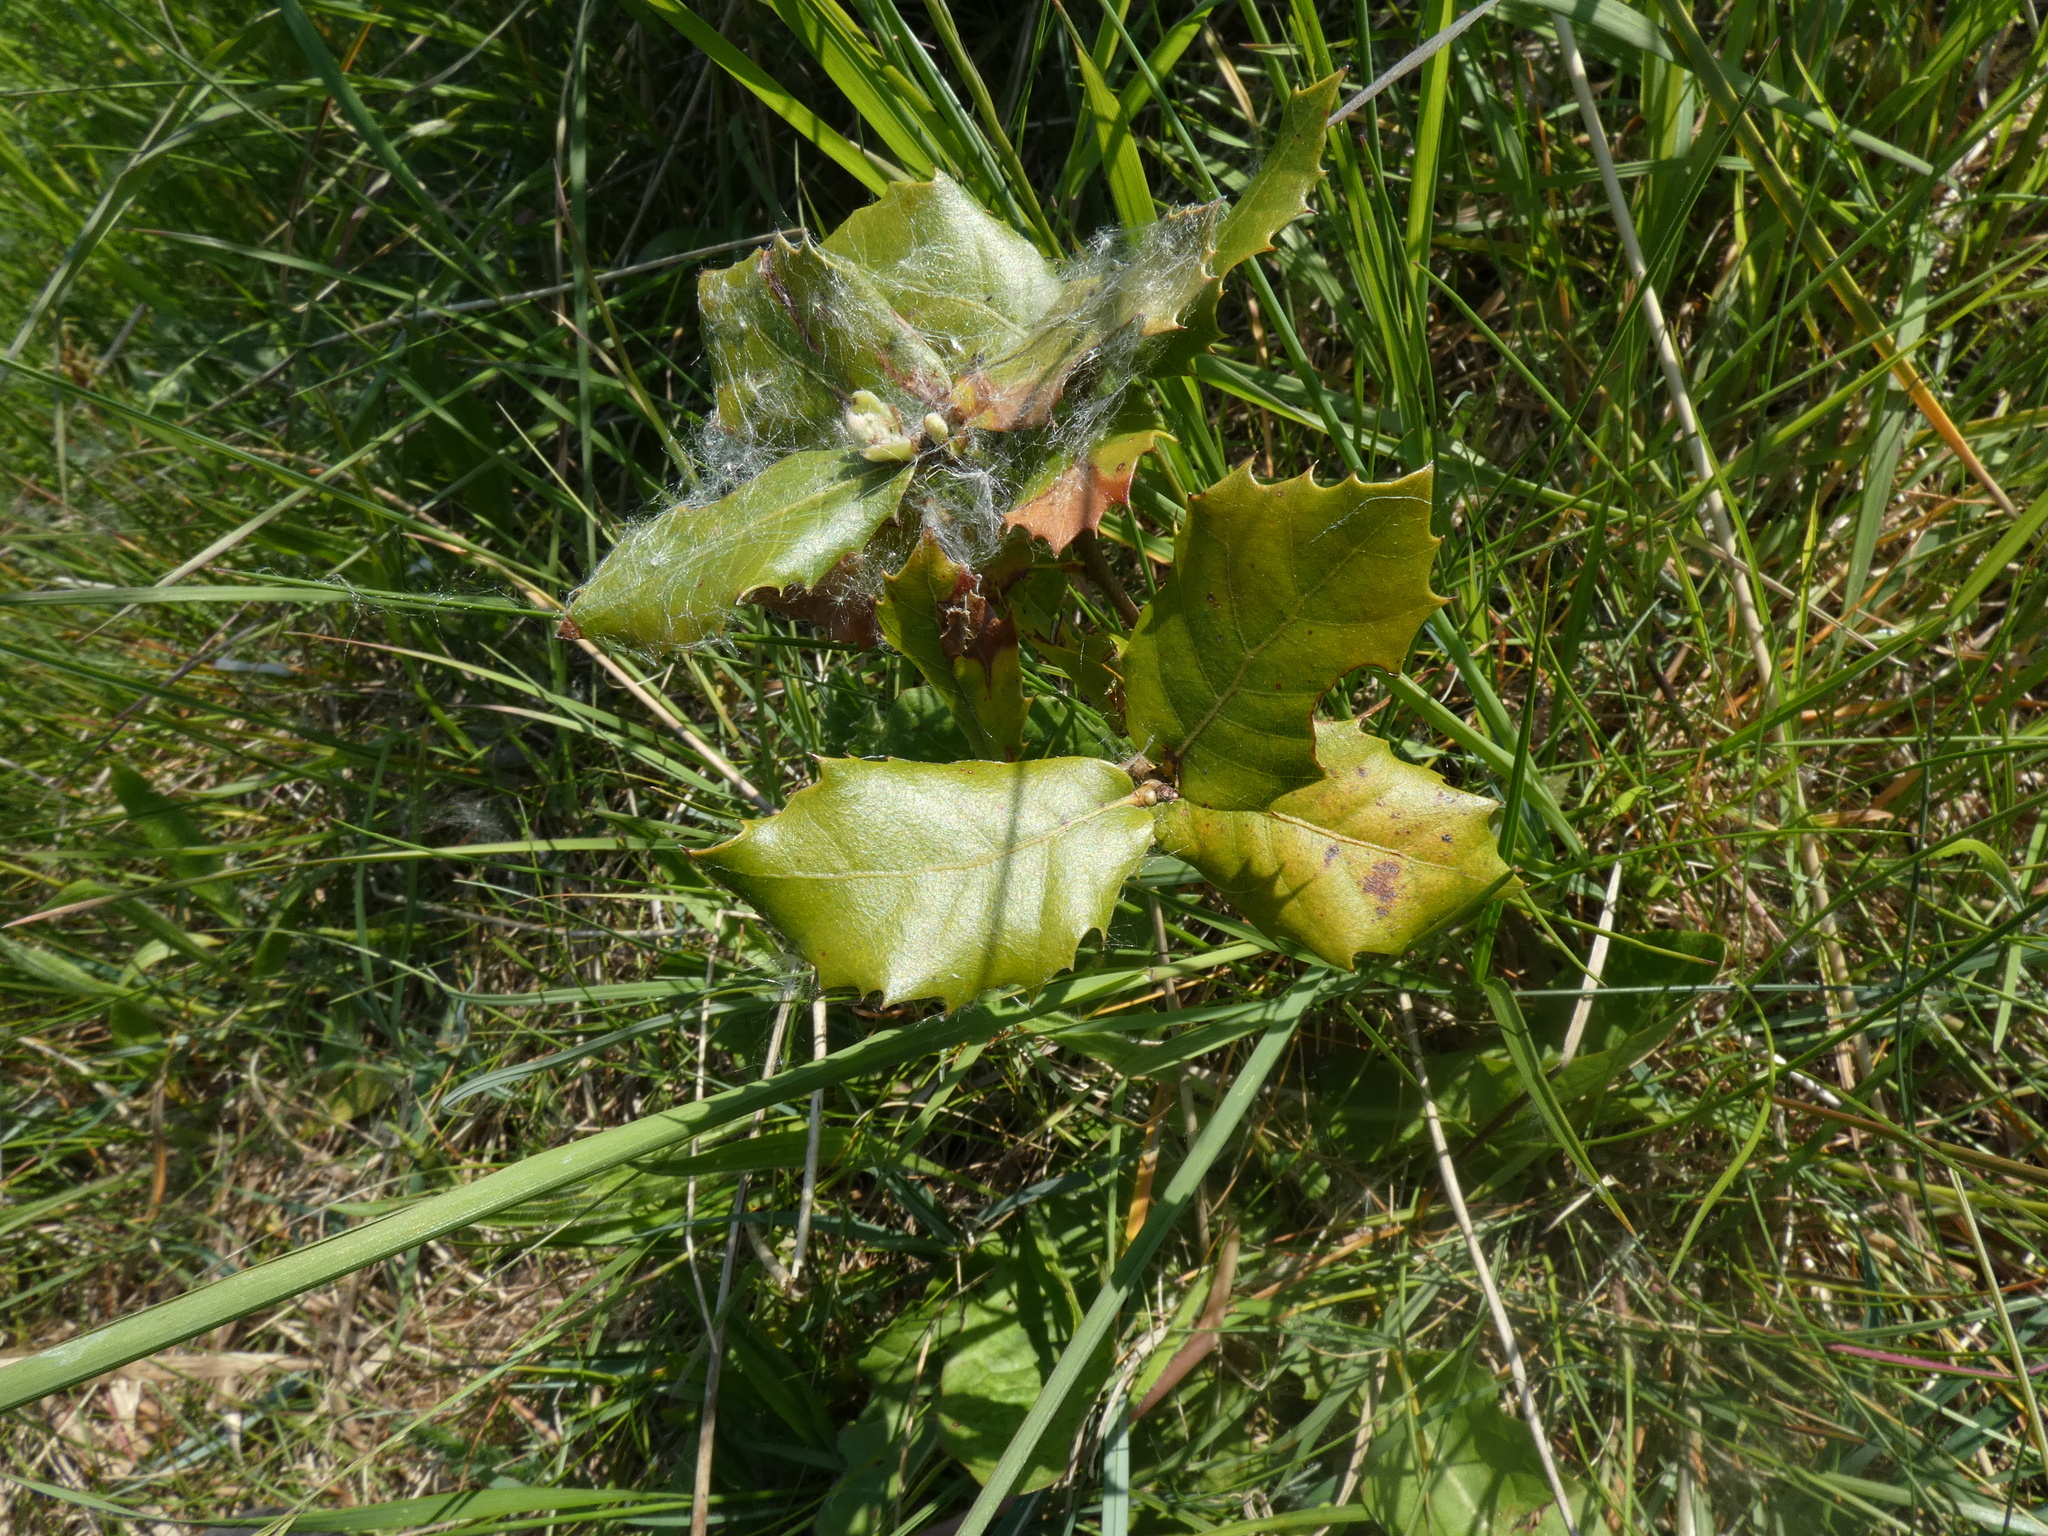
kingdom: Plantae
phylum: Tracheophyta
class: Magnoliopsida
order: Fagales
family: Fagaceae
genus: Quercus
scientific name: Quercus ilex
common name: Evergreen oak
